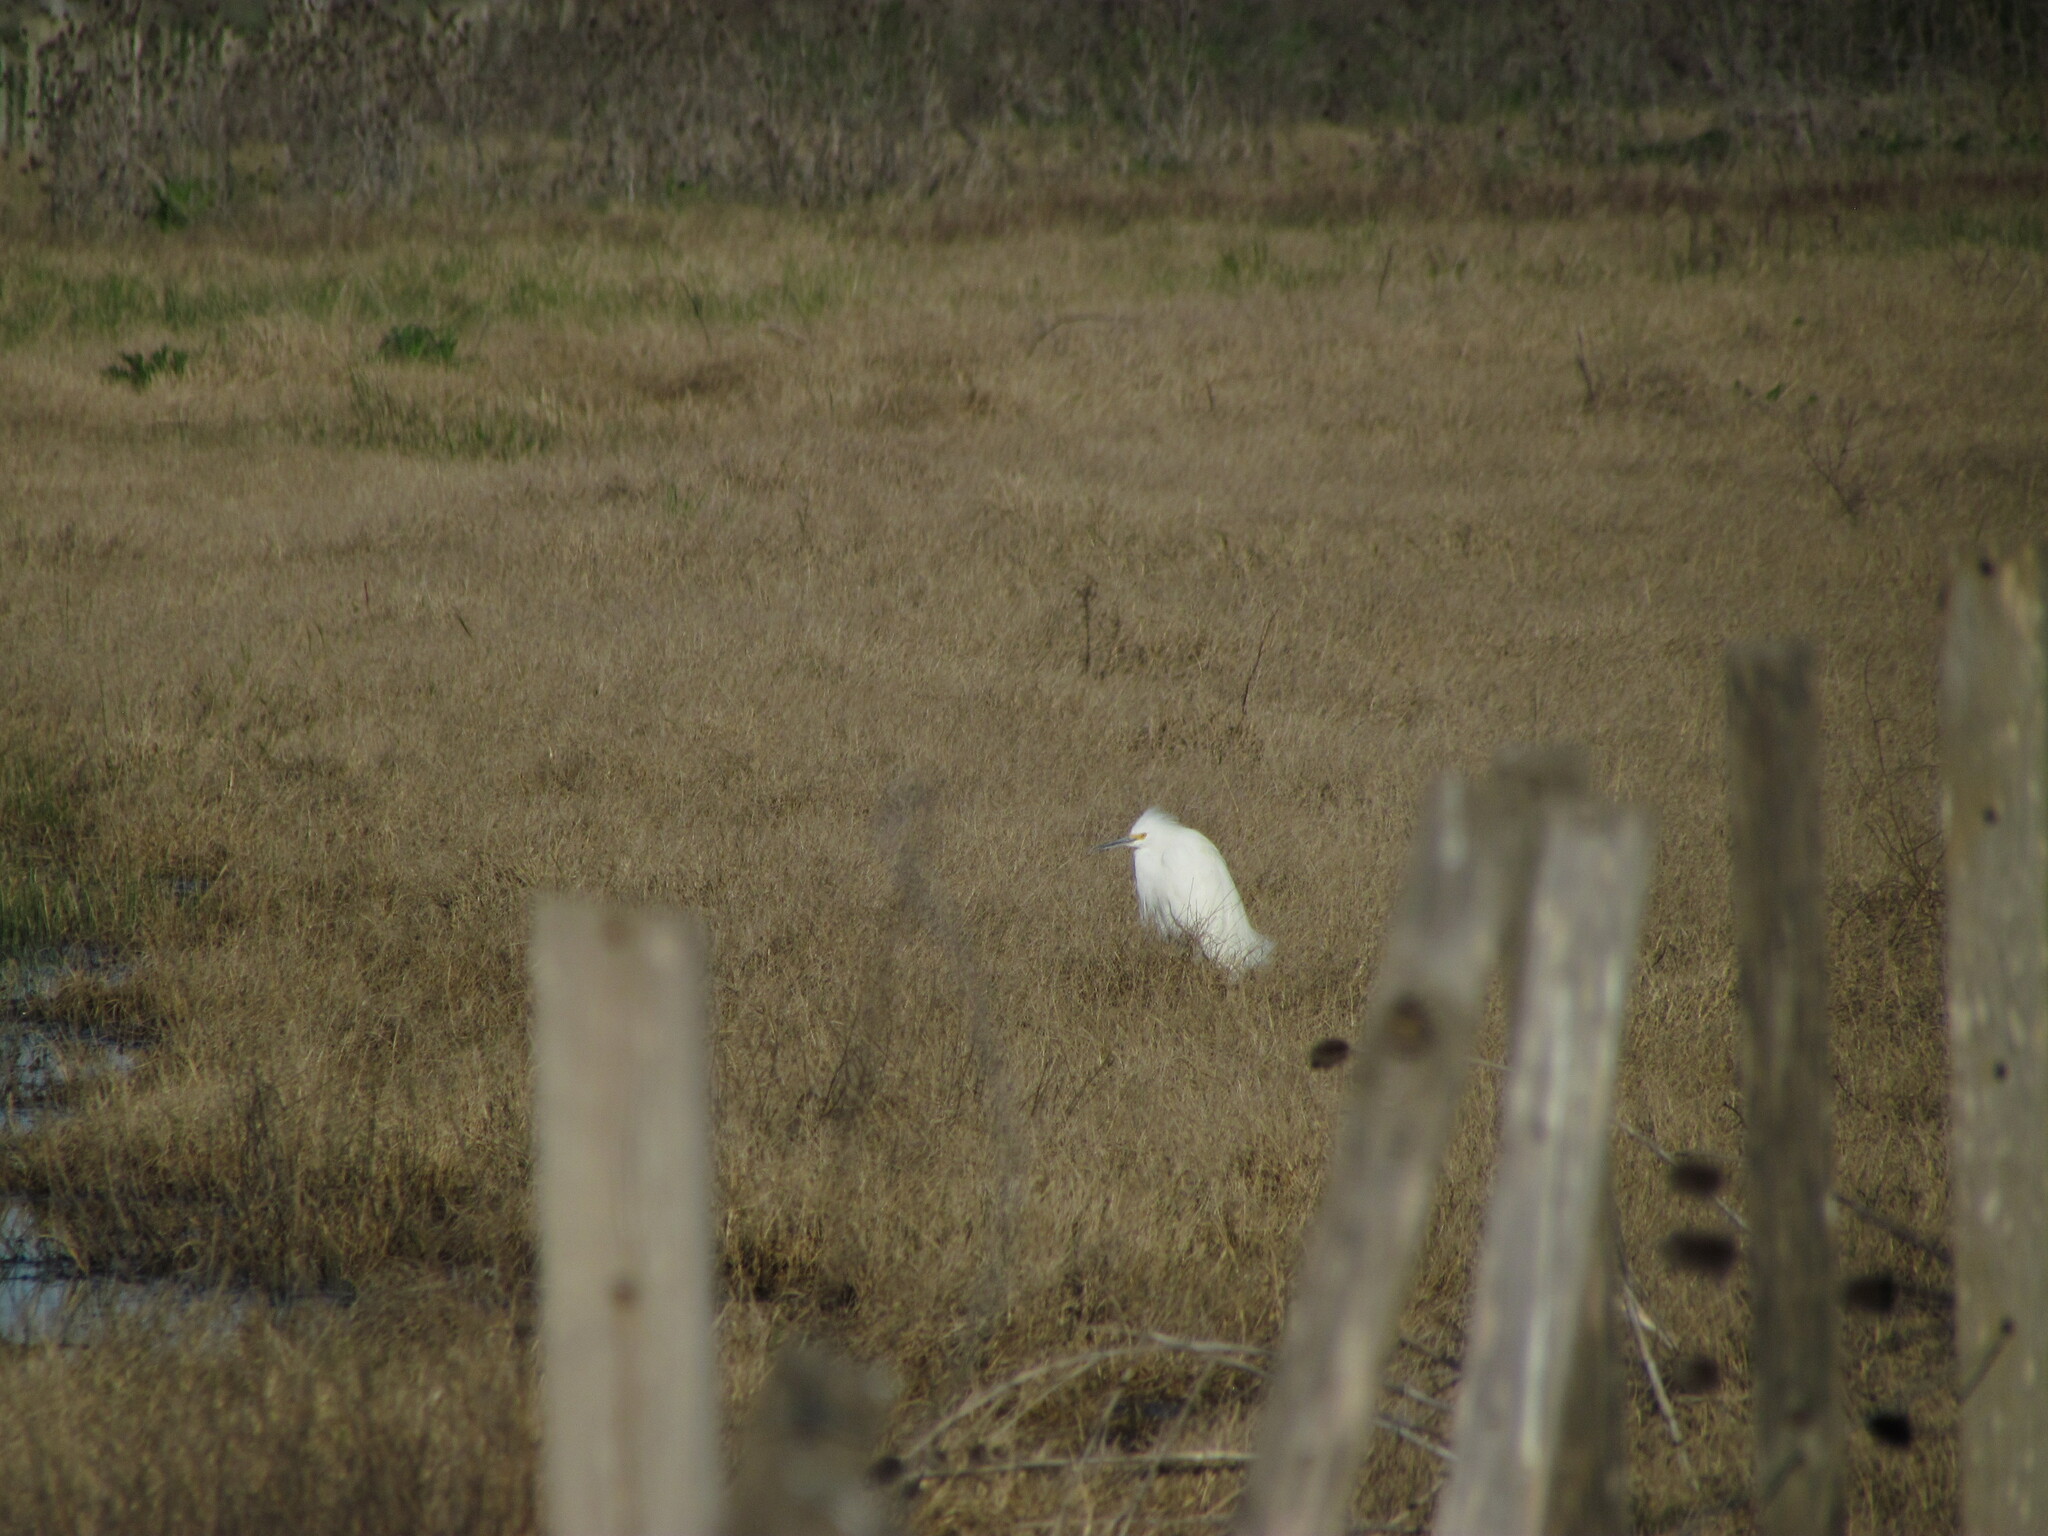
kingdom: Animalia
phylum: Chordata
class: Aves
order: Pelecaniformes
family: Ardeidae
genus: Egretta
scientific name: Egretta thula
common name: Snowy egret
